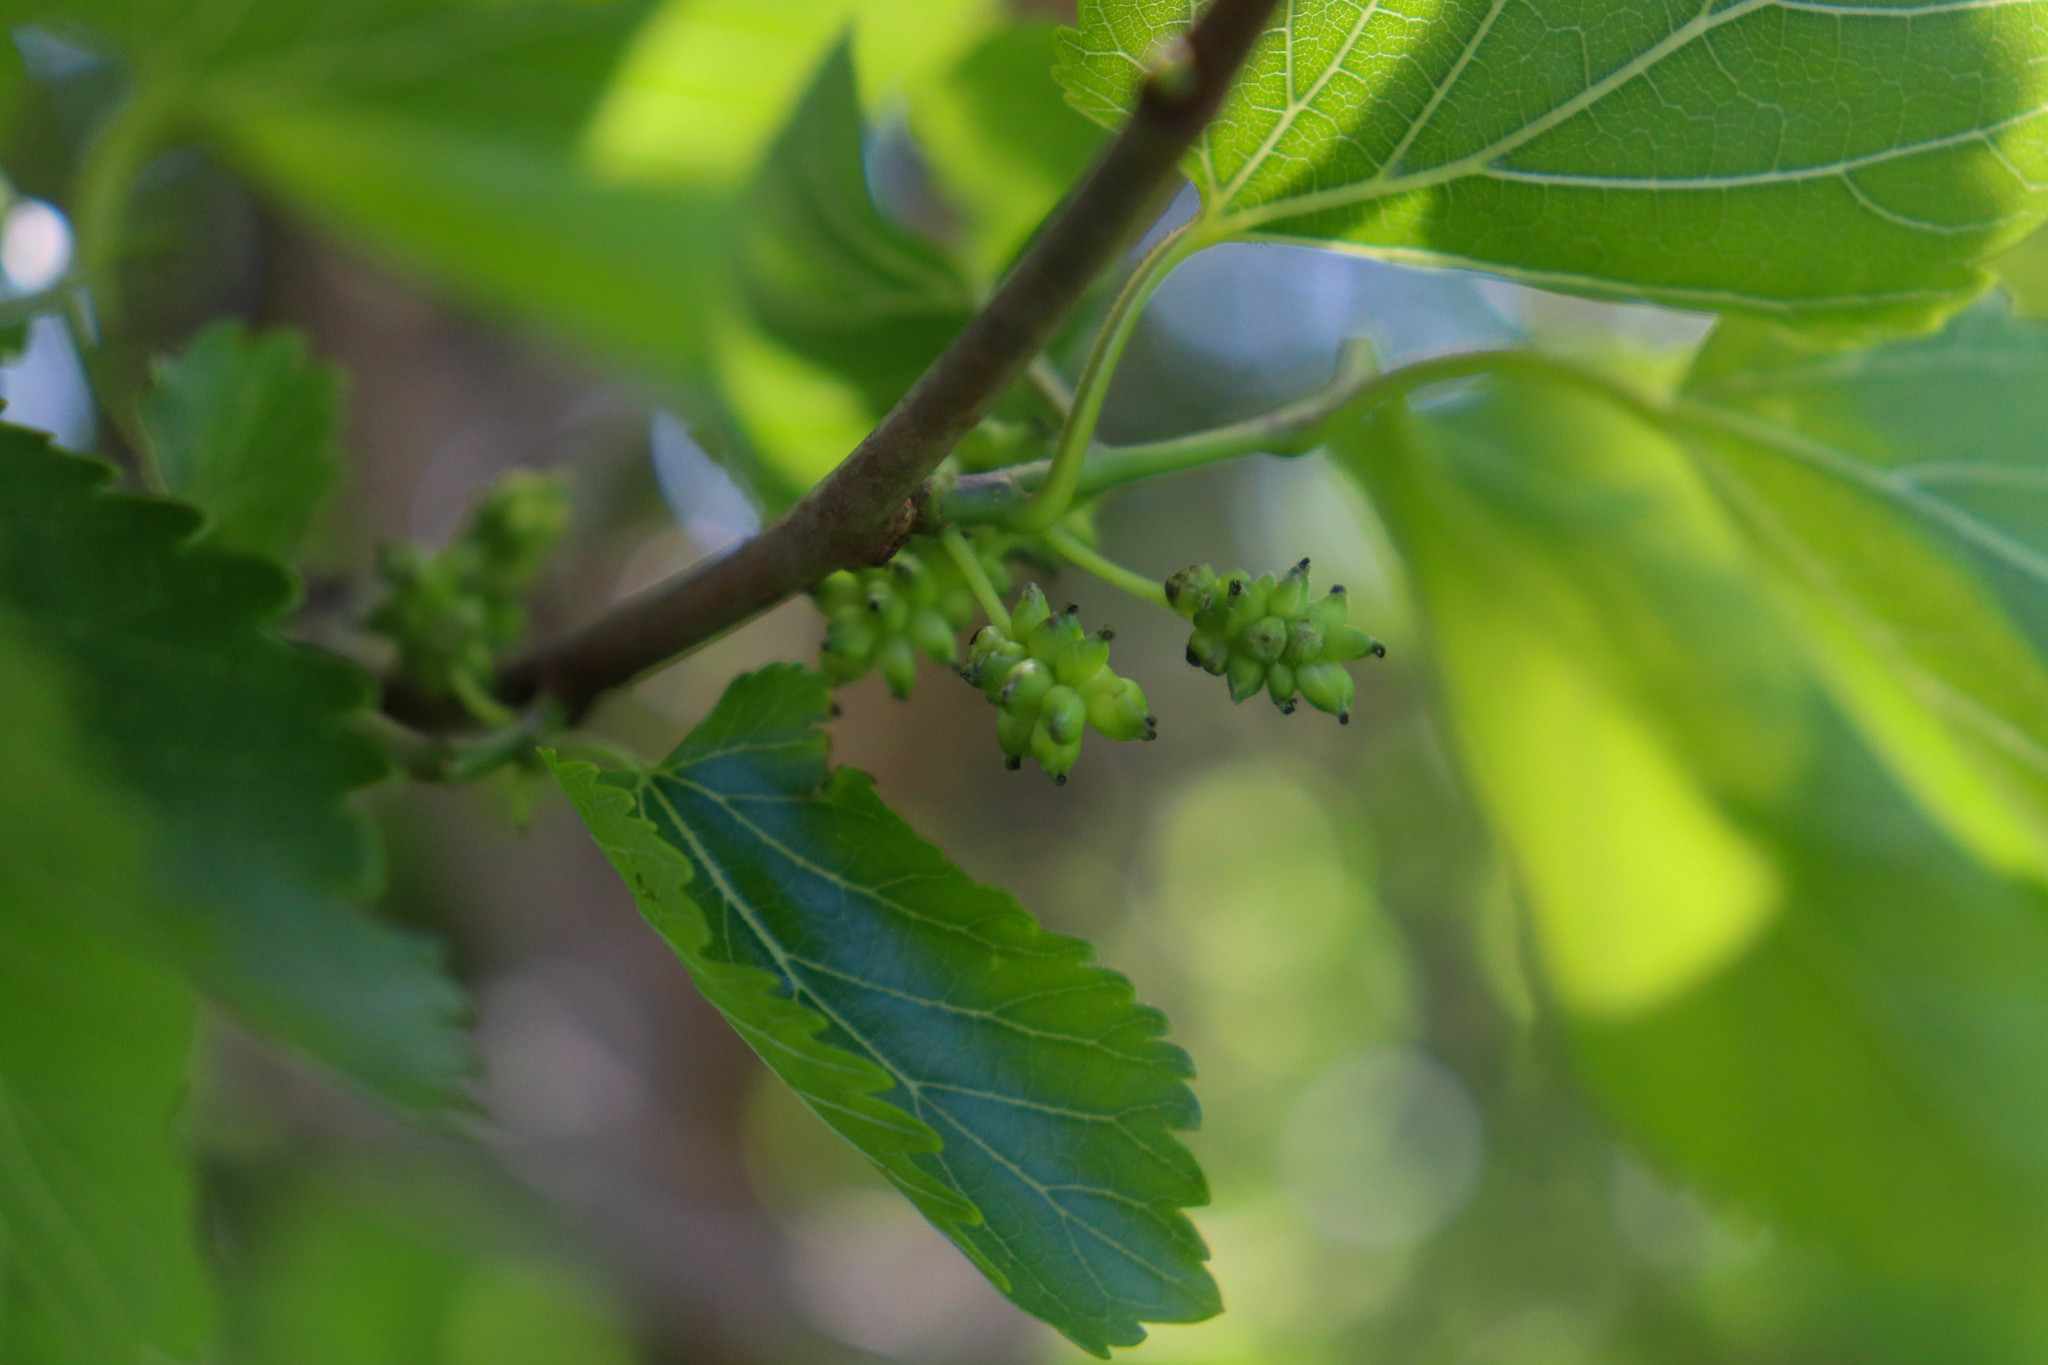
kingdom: Plantae
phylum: Tracheophyta
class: Magnoliopsida
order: Rosales
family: Moraceae
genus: Morus
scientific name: Morus alba
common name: White mulberry
